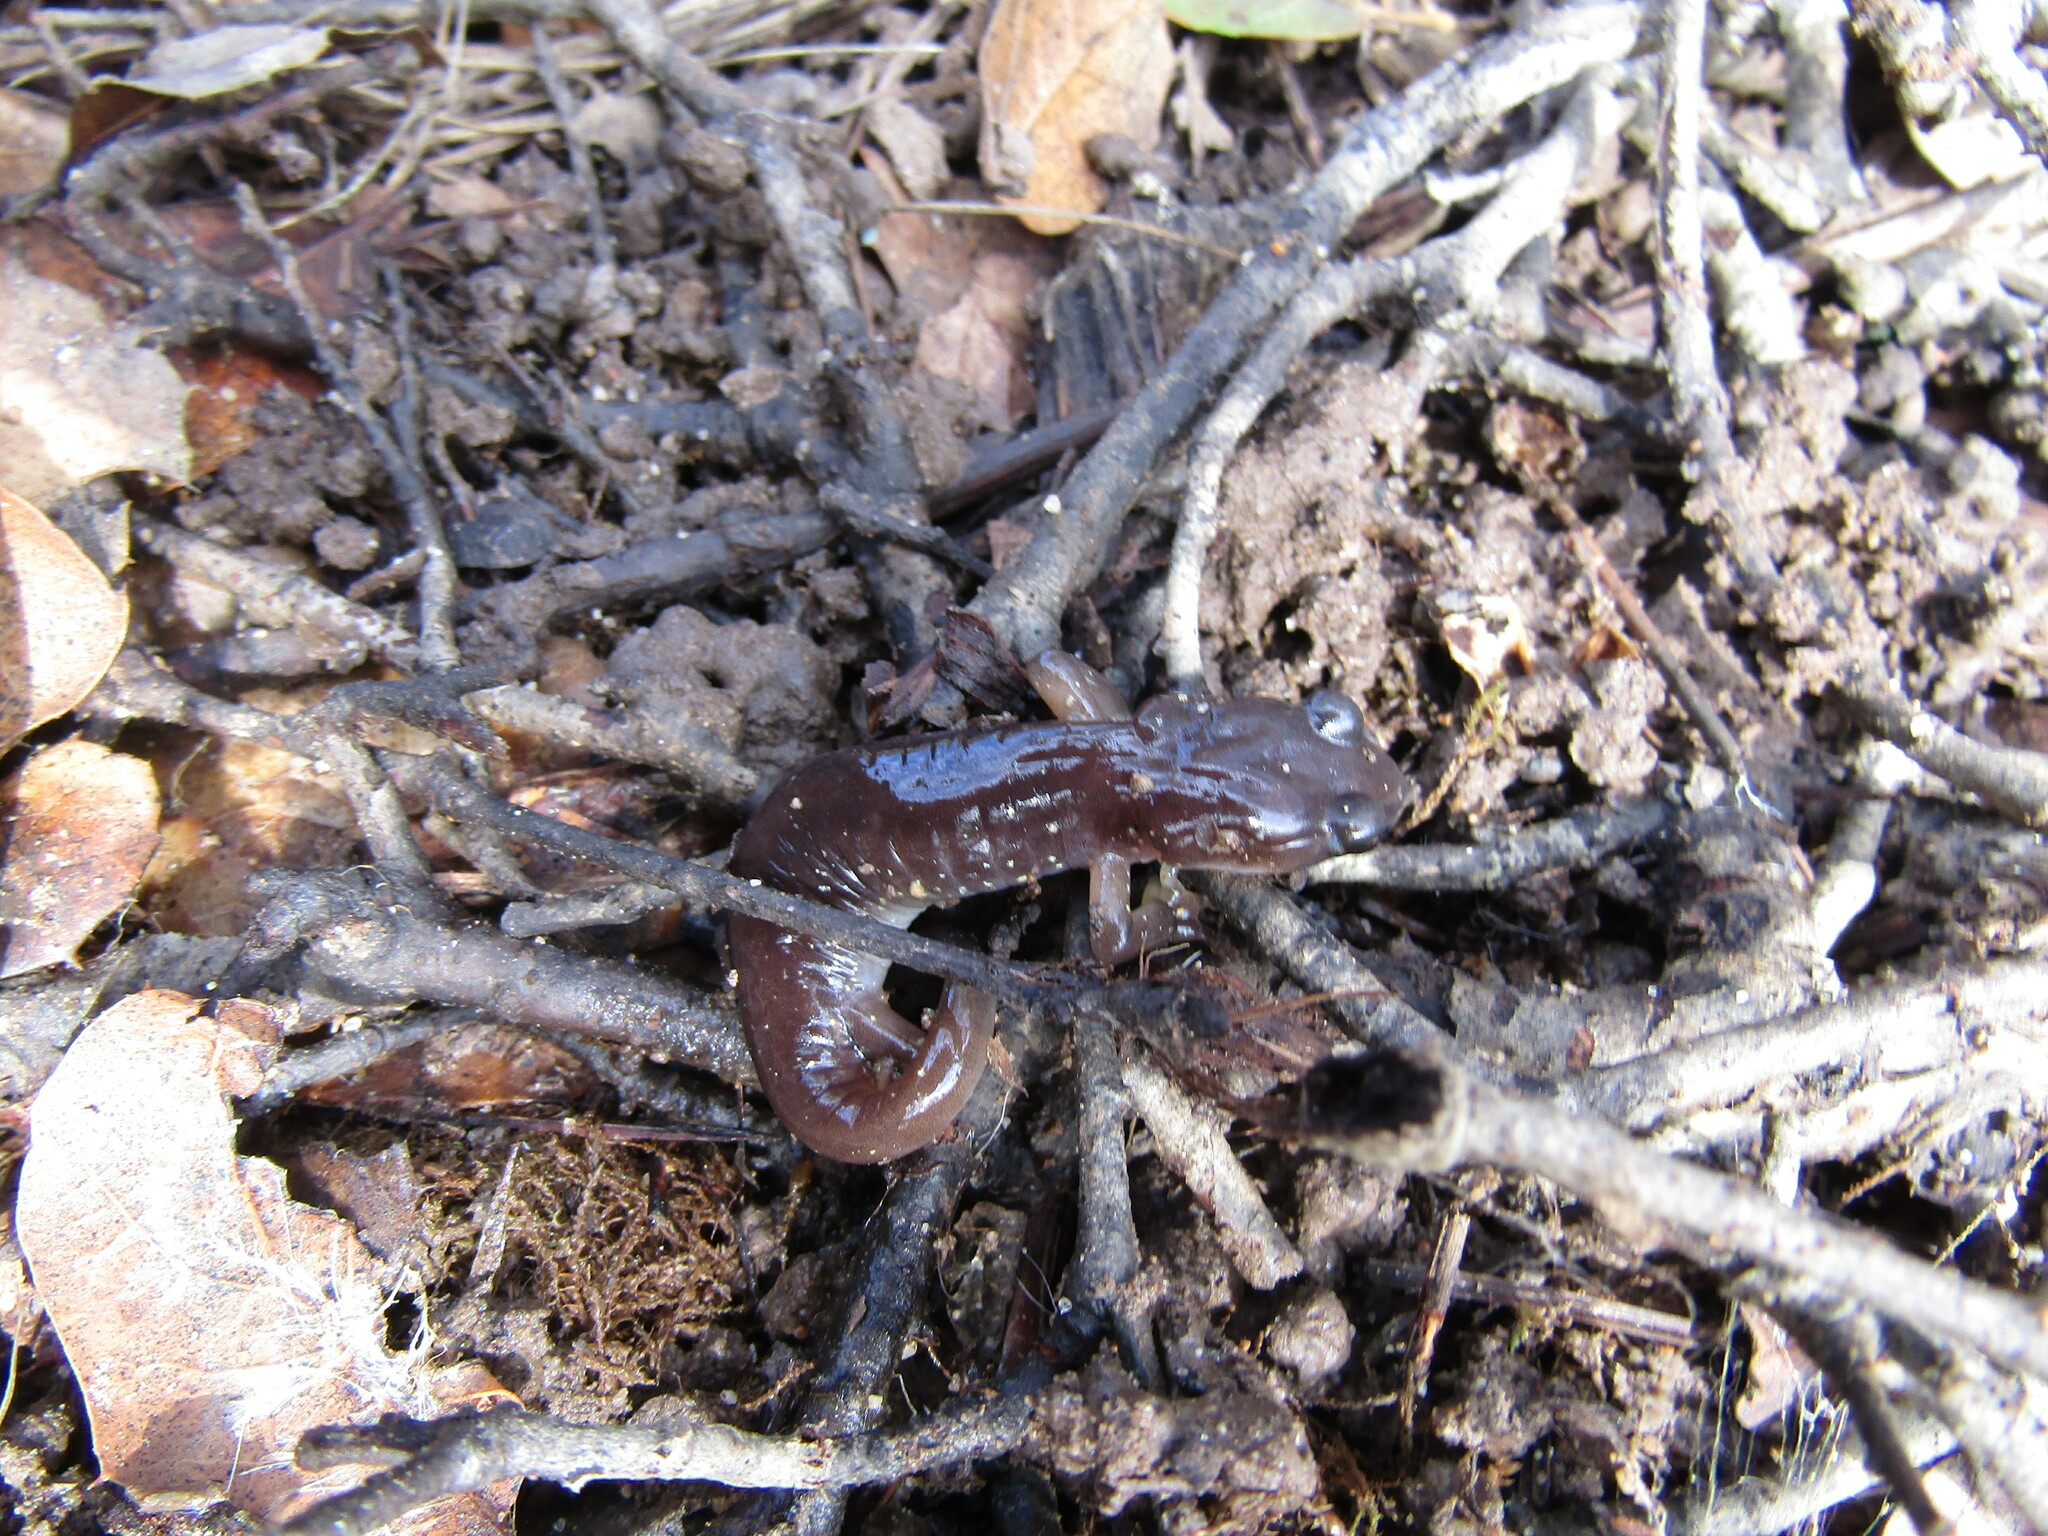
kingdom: Animalia
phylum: Chordata
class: Amphibia
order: Caudata
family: Plethodontidae
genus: Aneides
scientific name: Aneides lugubris
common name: Arboreal salamander
